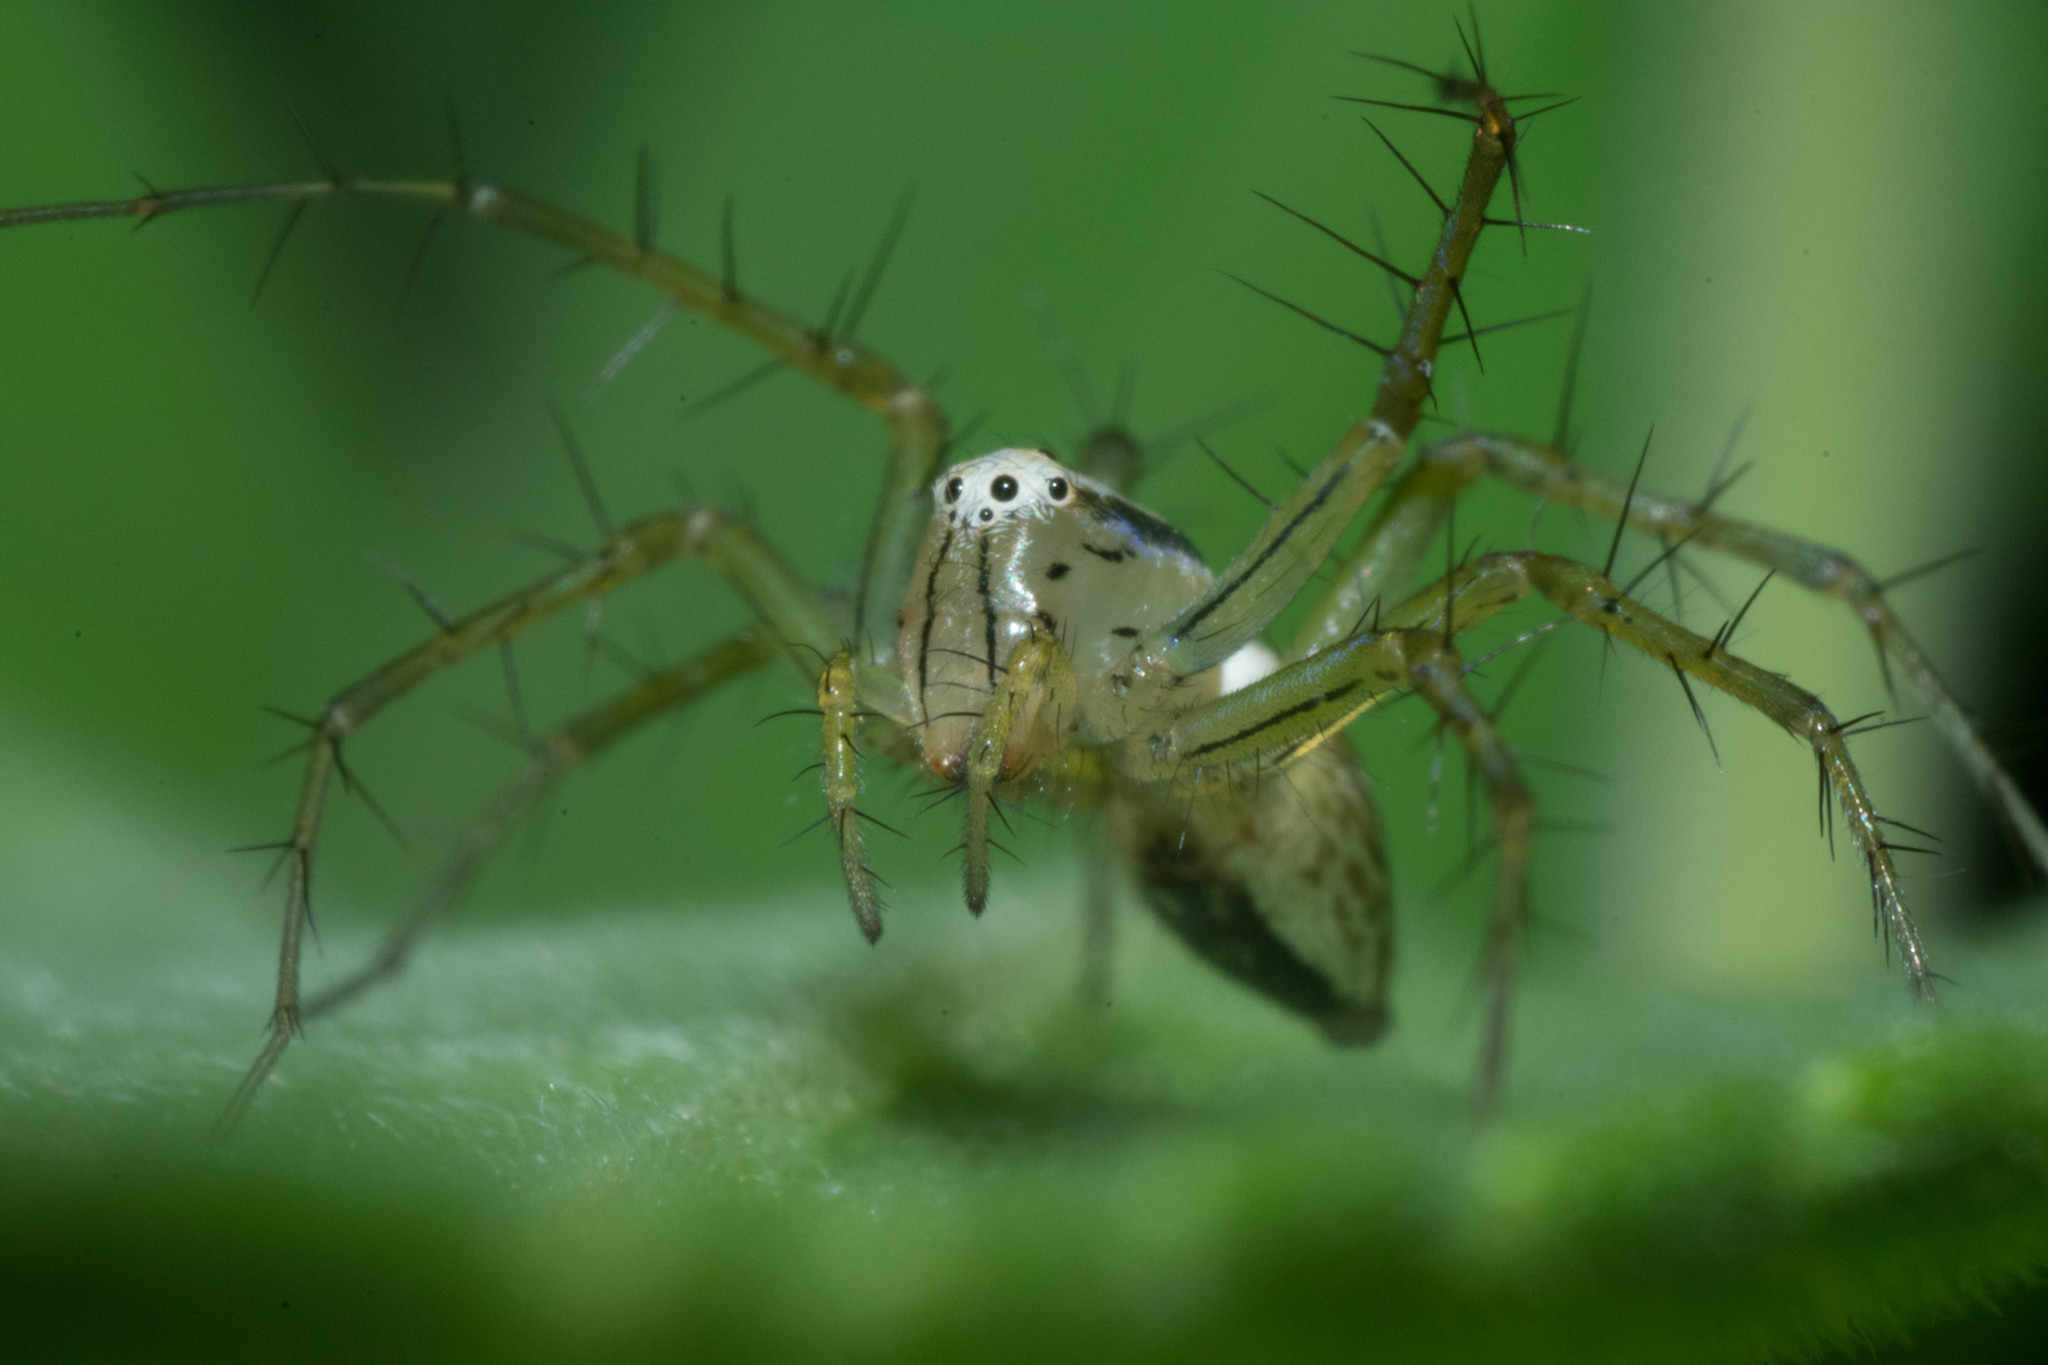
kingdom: Animalia
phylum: Arthropoda
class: Arachnida
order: Araneae
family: Oxyopidae
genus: Oxyopes
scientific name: Oxyopes salticus
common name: Lynx spiders
